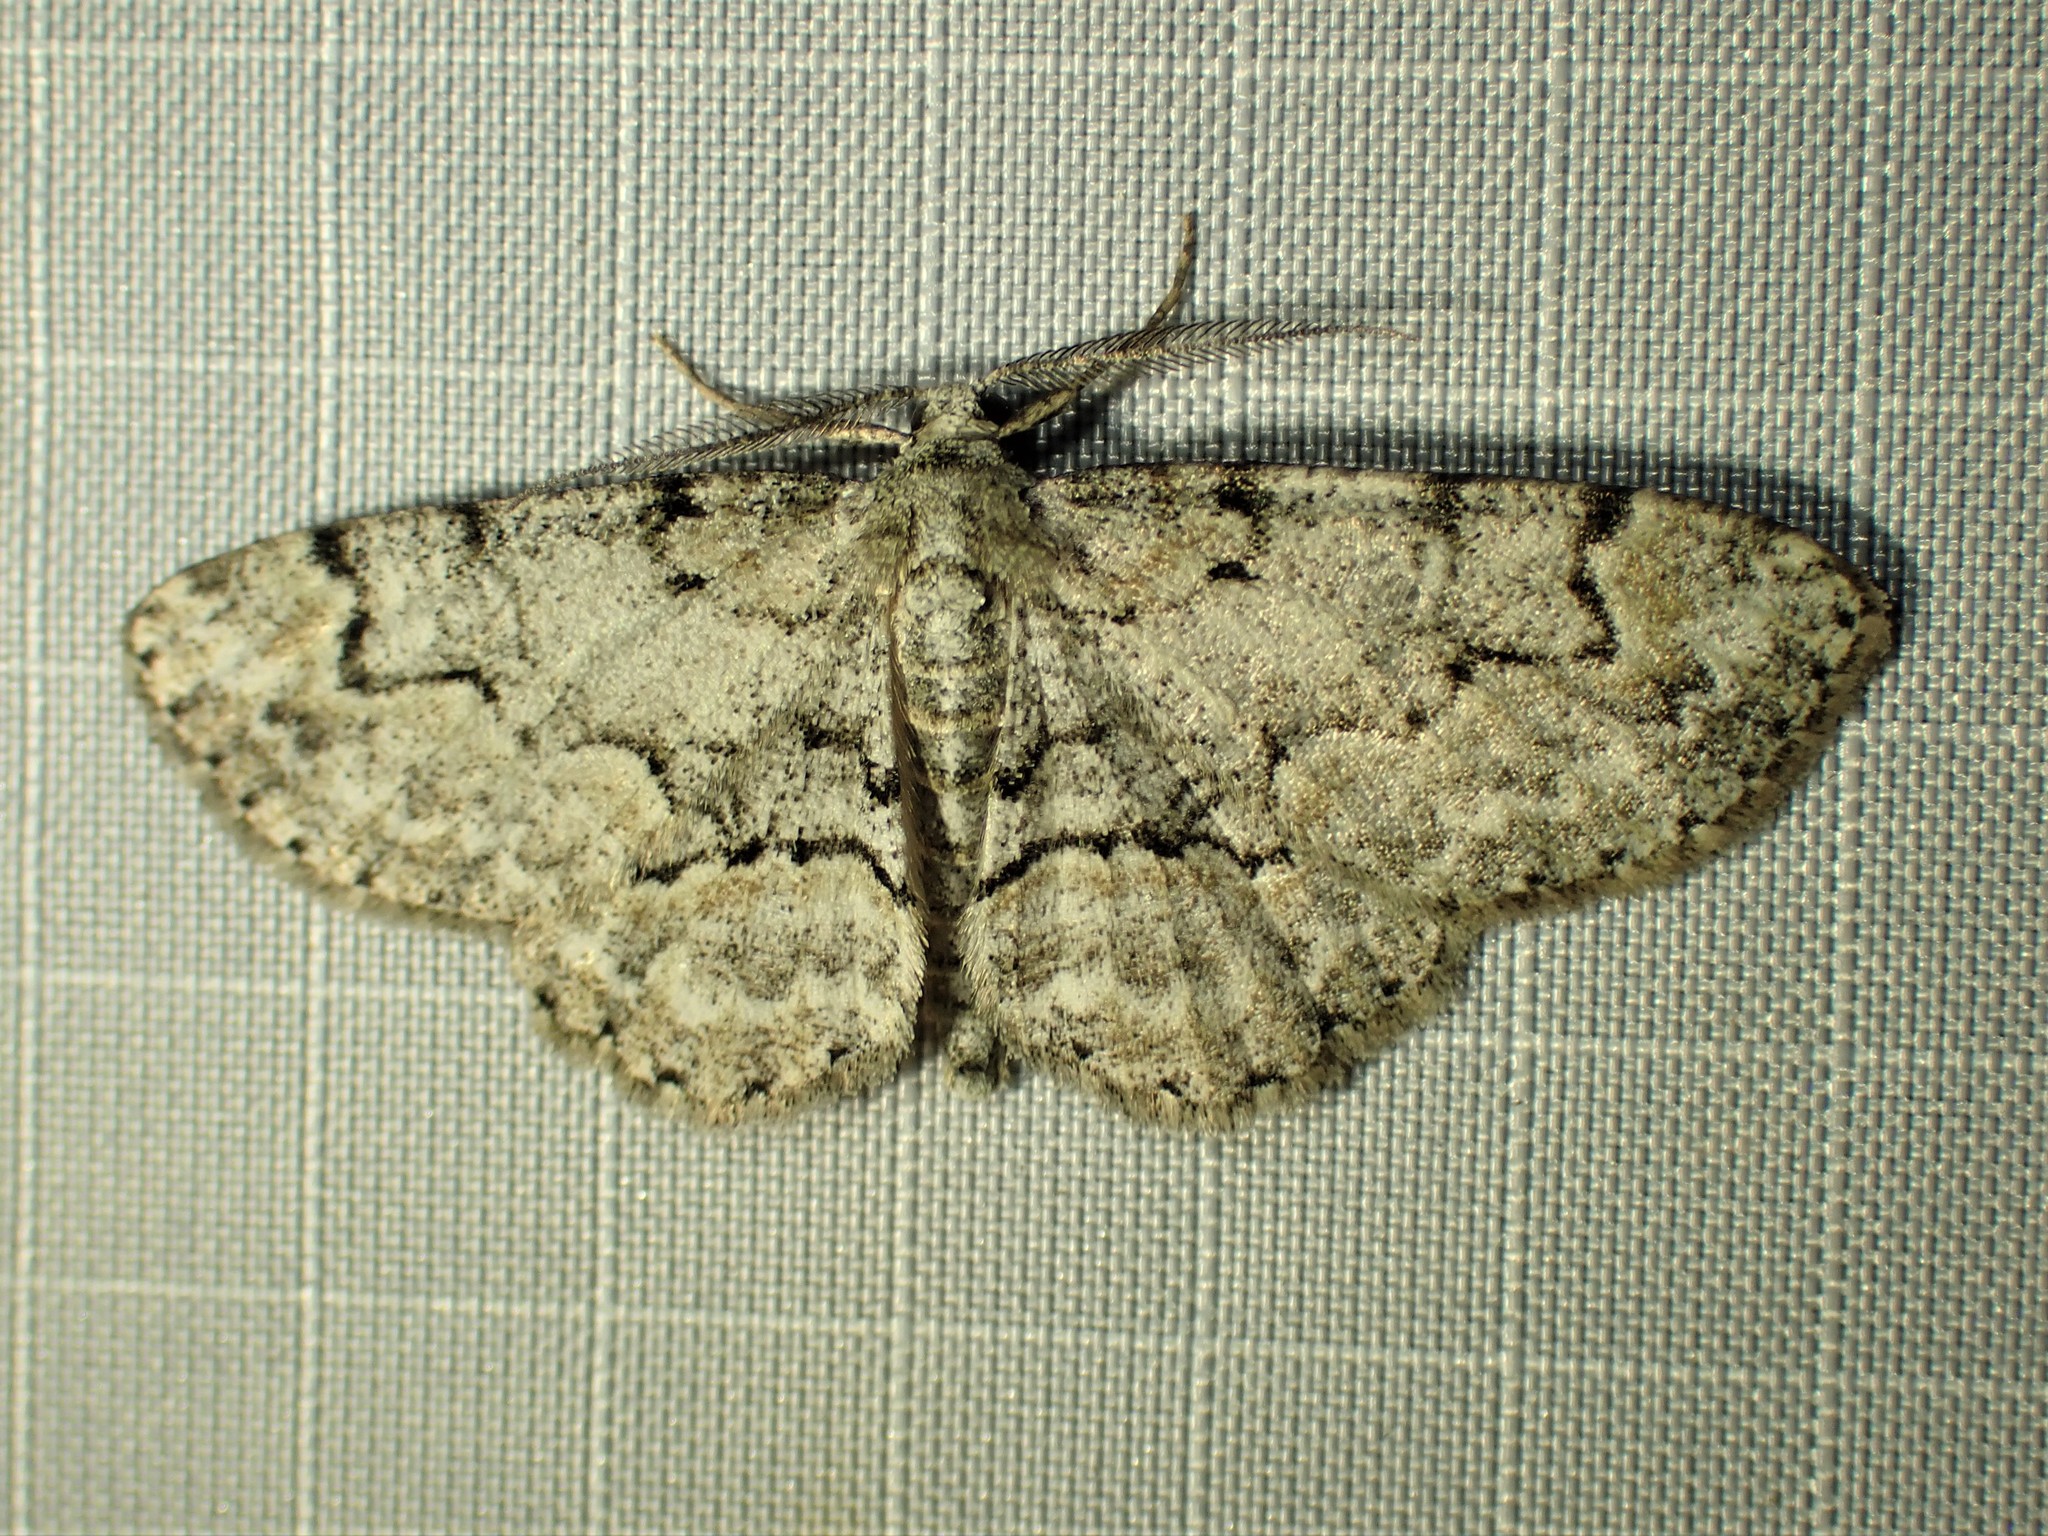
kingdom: Animalia
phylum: Arthropoda
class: Insecta
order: Lepidoptera
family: Geometridae
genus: Iridopsis
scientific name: Iridopsis ephyraria
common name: Pale-winged gray
